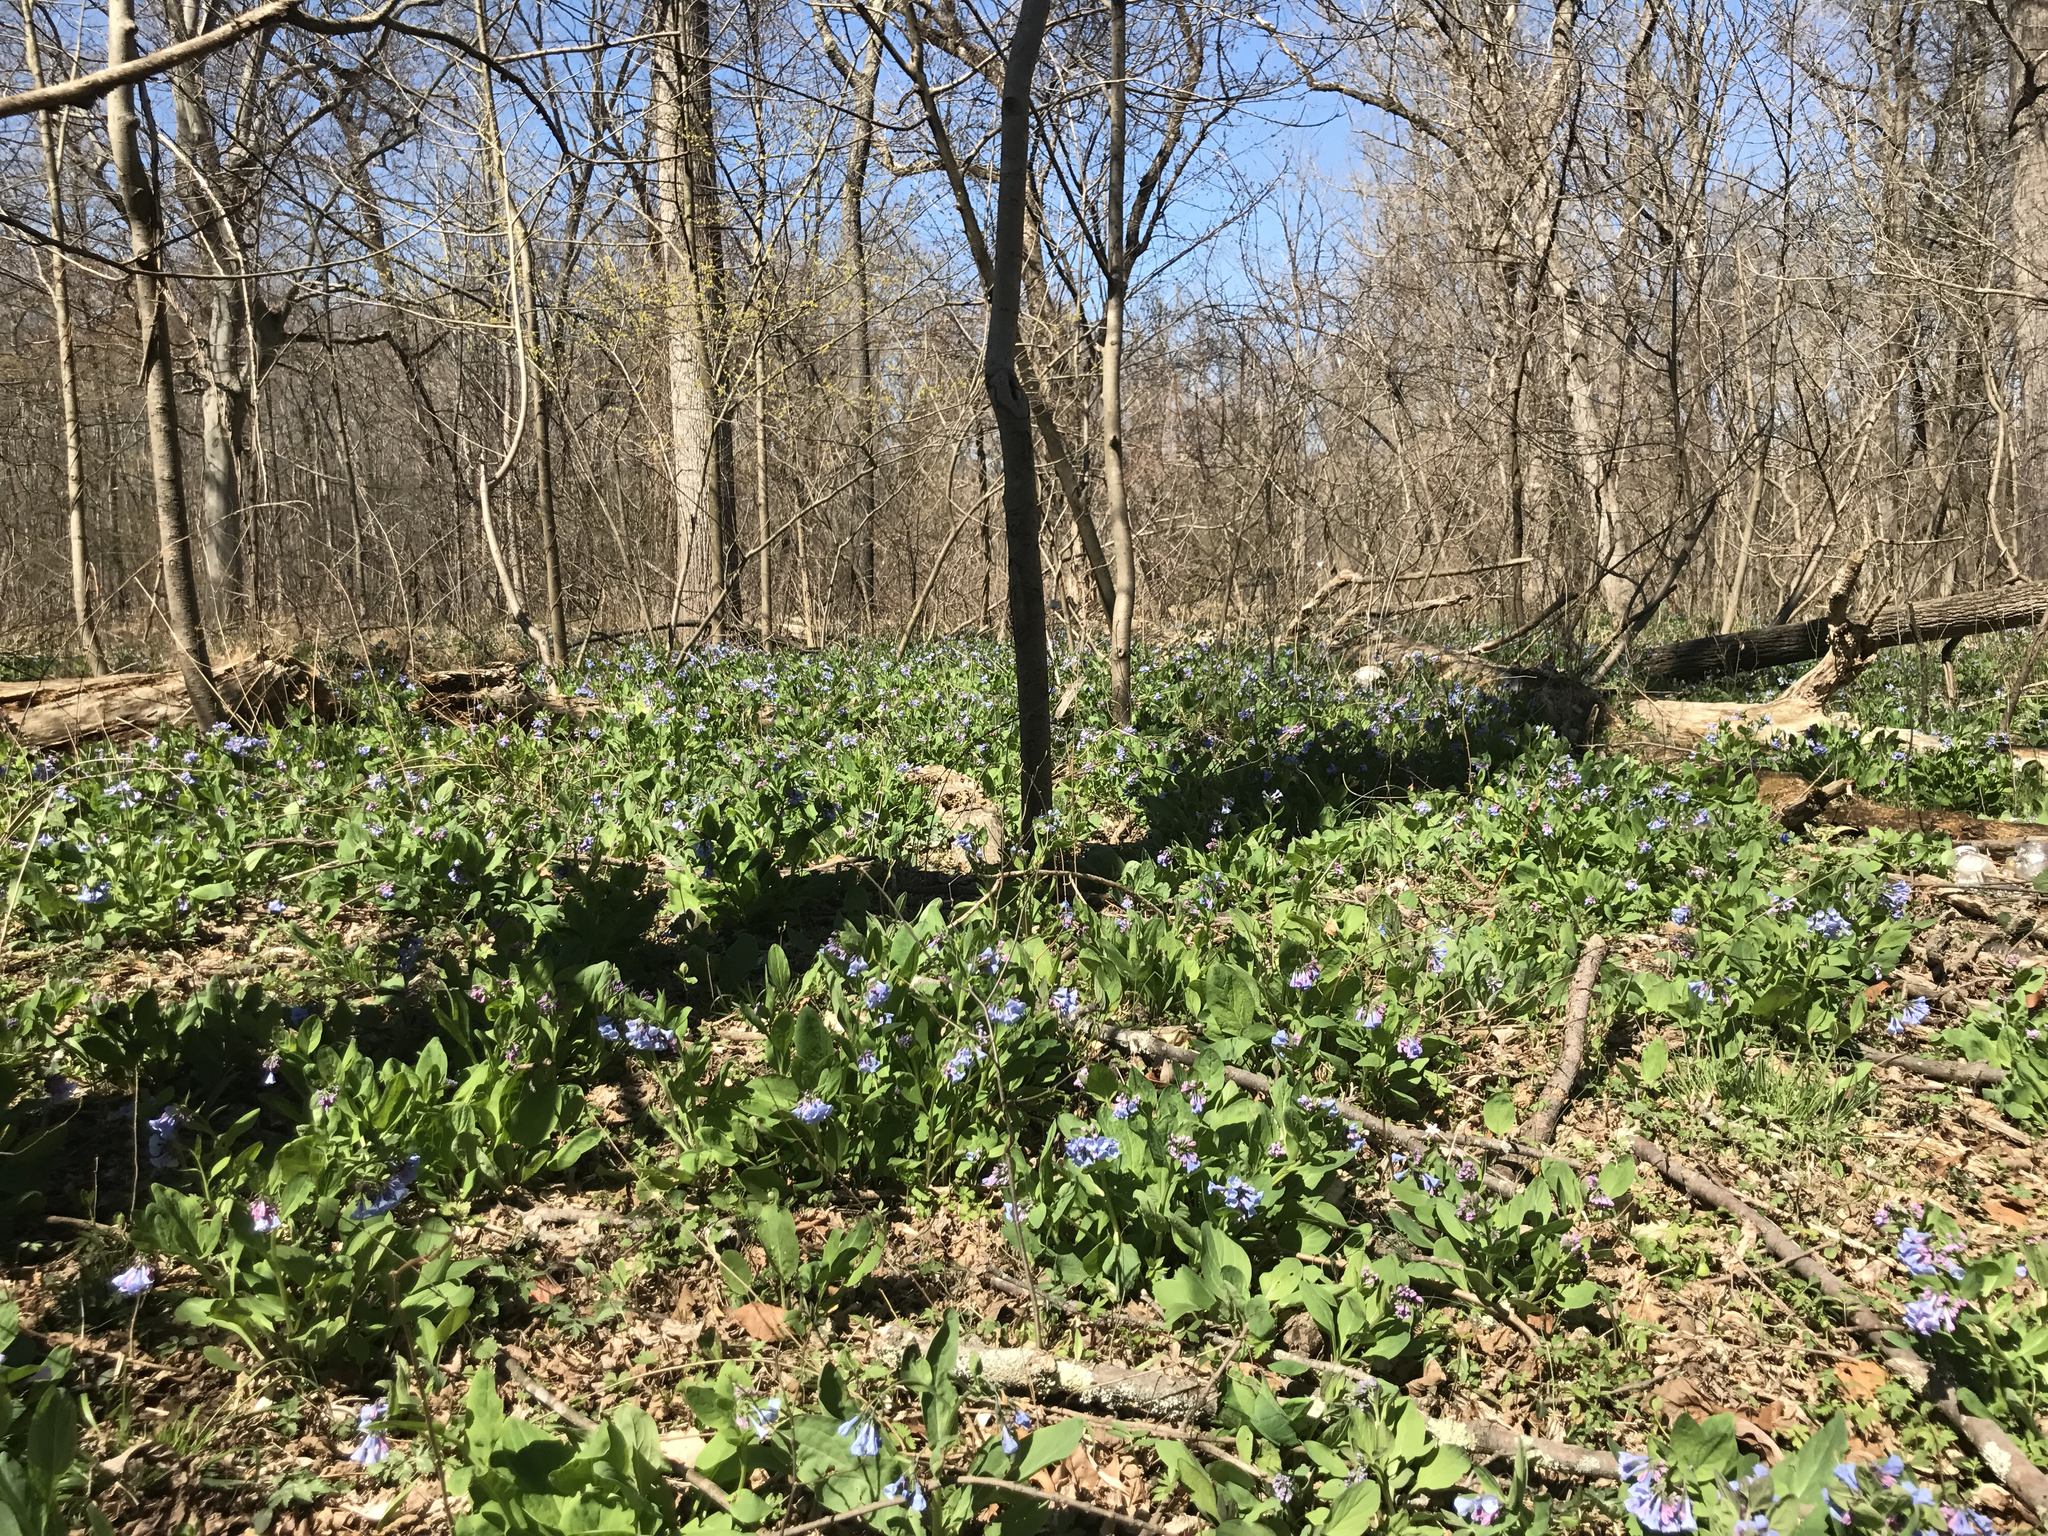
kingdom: Plantae
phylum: Tracheophyta
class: Magnoliopsida
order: Boraginales
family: Boraginaceae
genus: Mertensia
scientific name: Mertensia virginica
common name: Virginia bluebells
